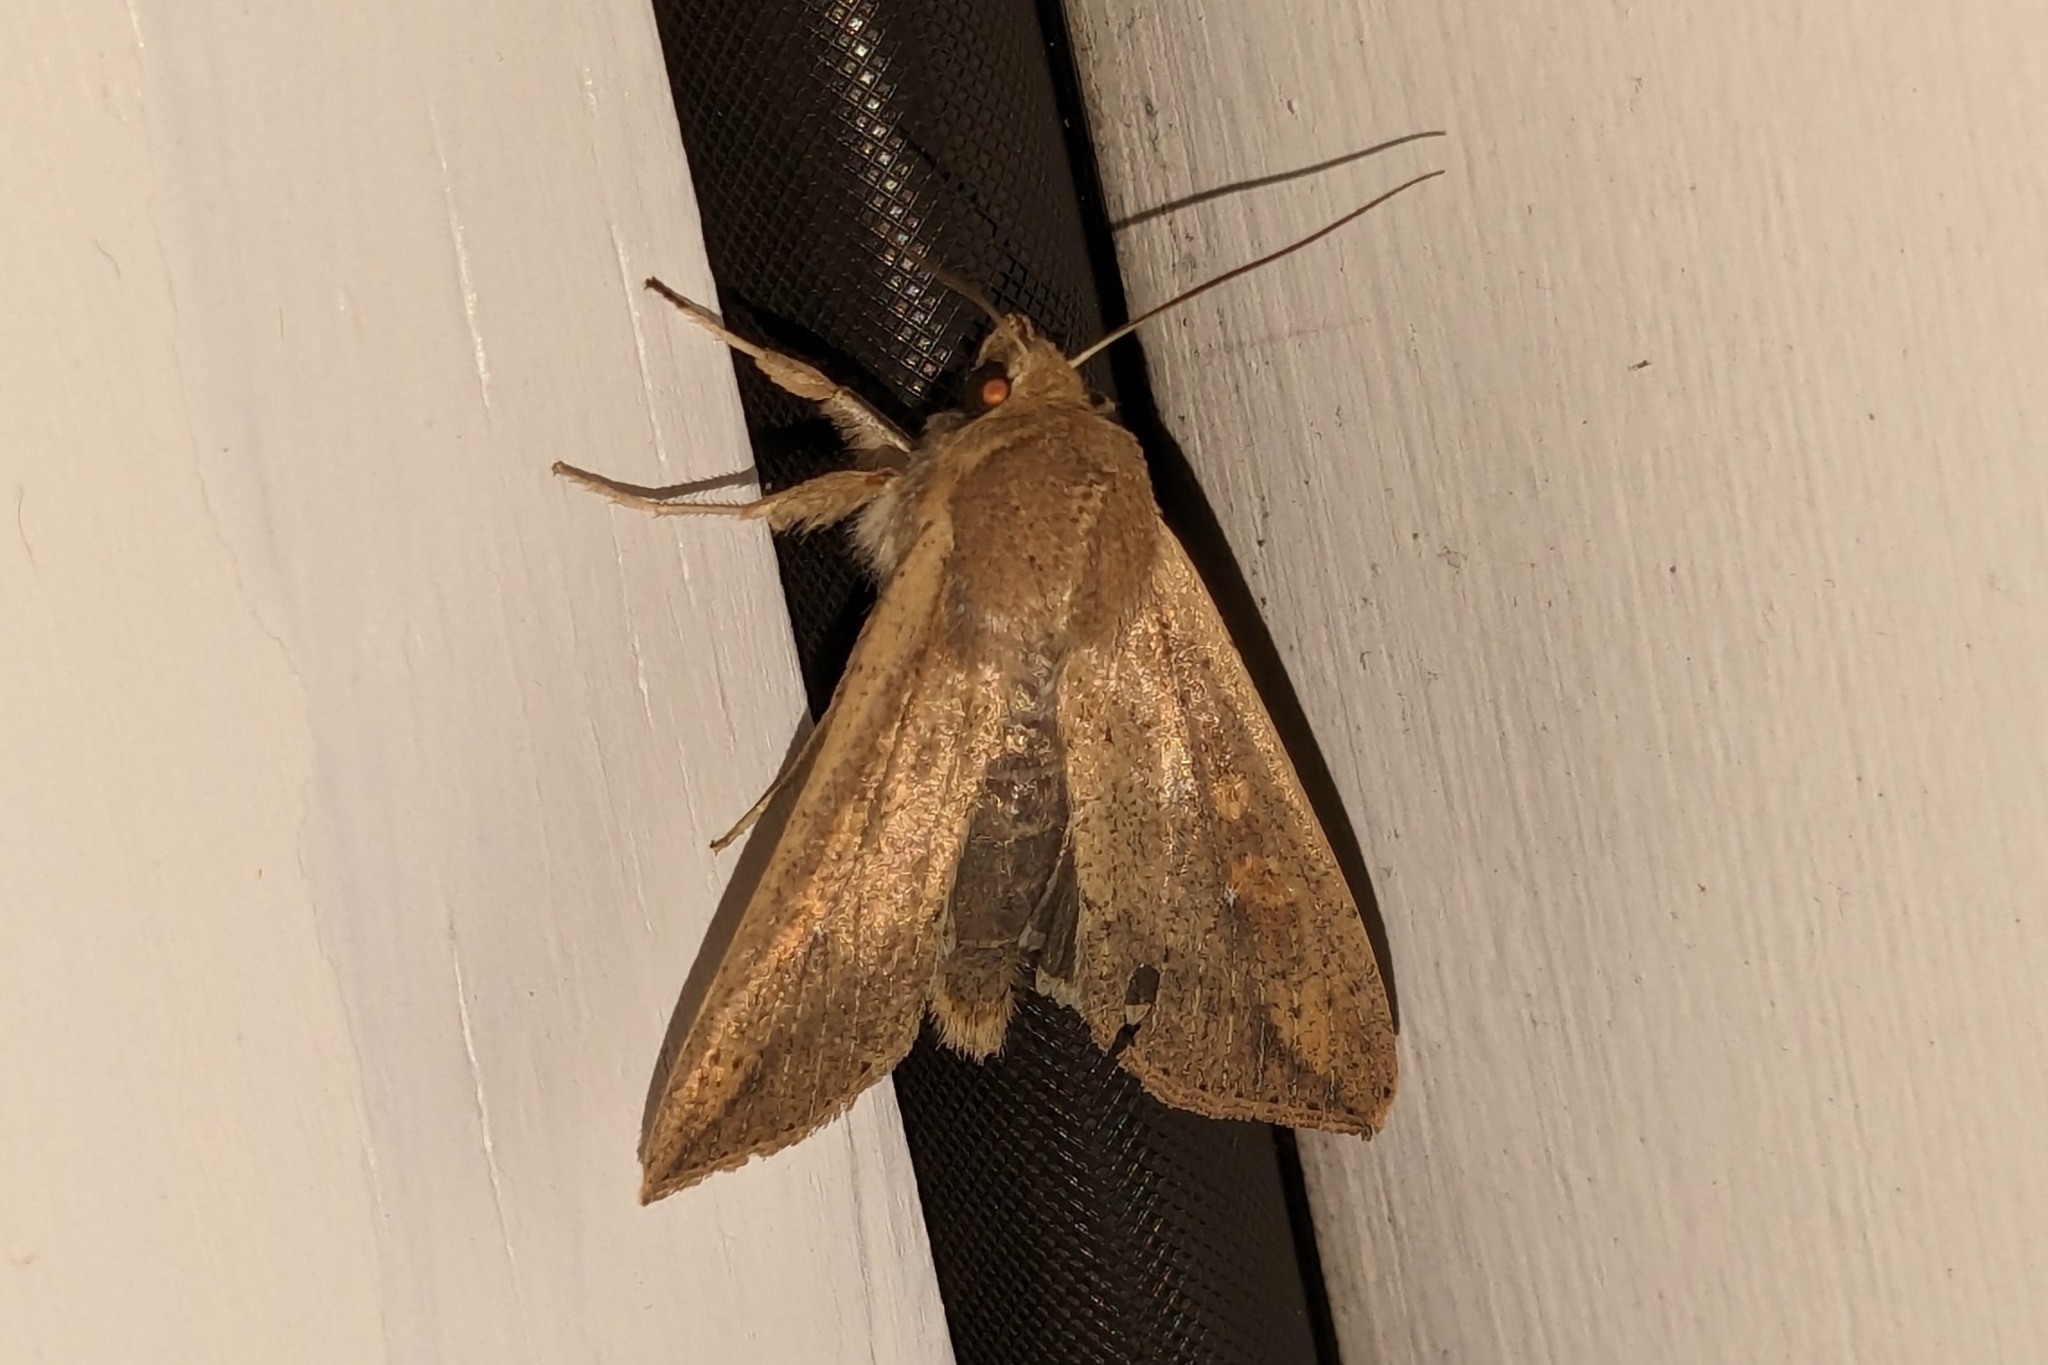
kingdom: Animalia
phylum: Arthropoda
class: Insecta
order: Lepidoptera
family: Noctuidae
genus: Mythimna
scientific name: Mythimna unipuncta
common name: White-speck
